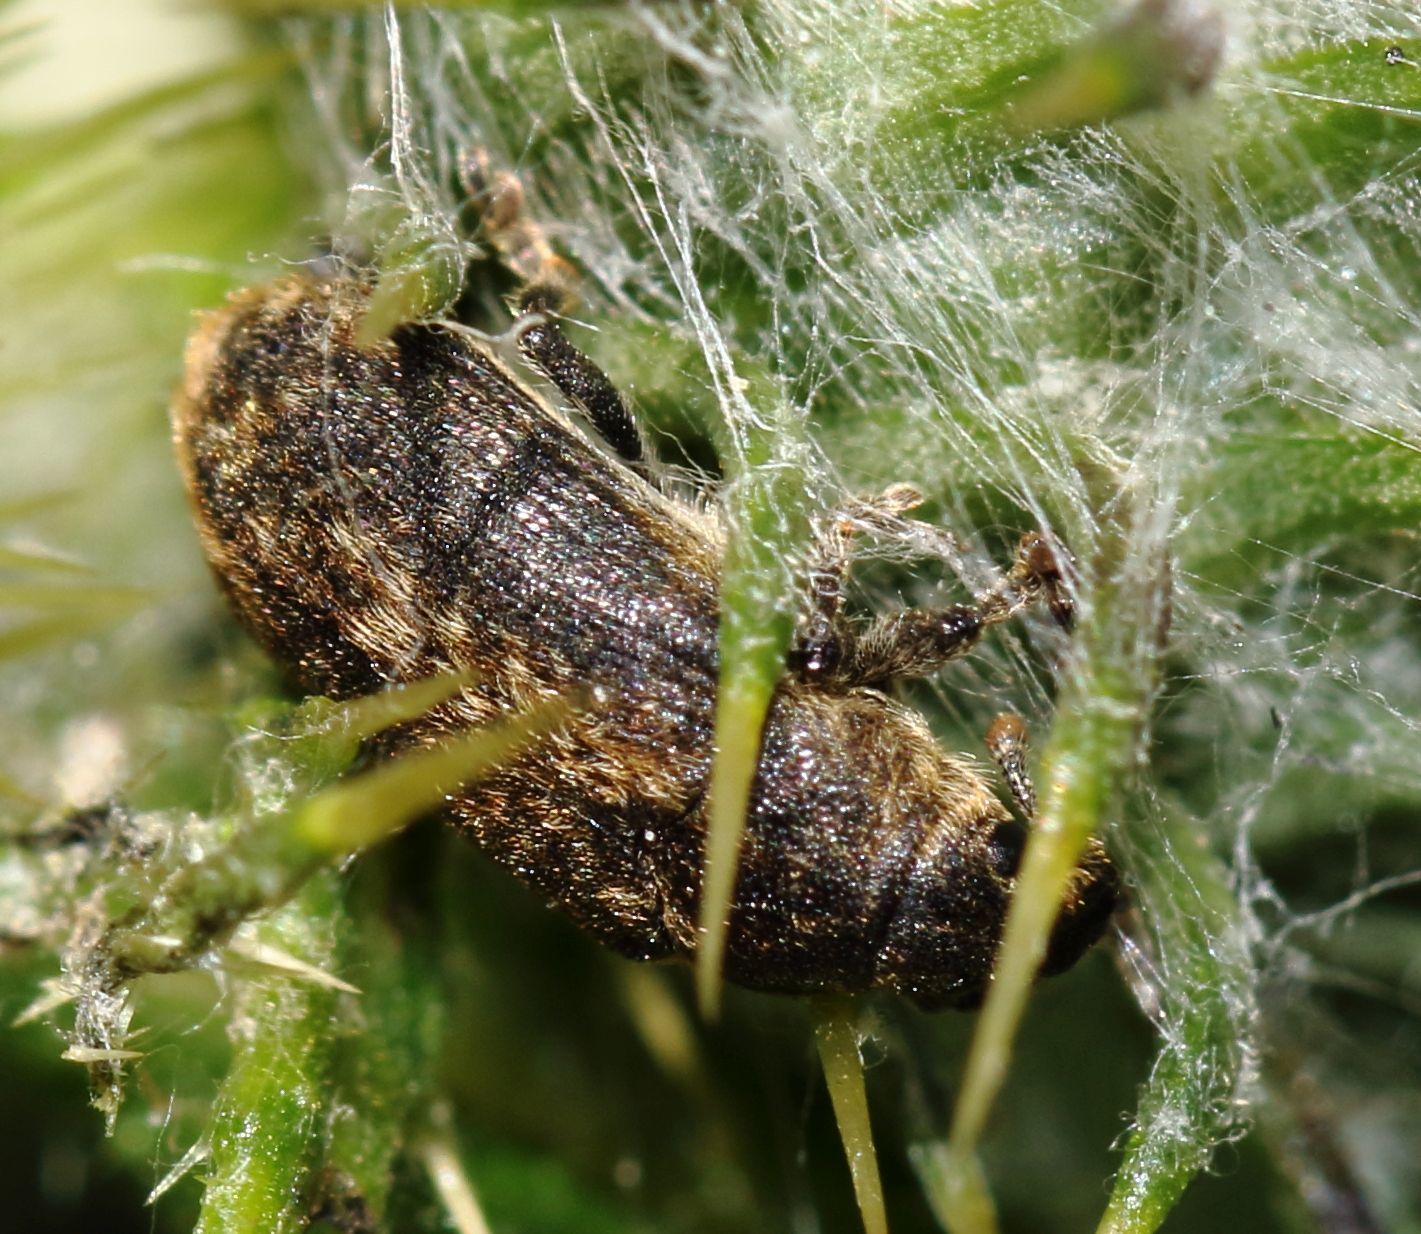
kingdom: Animalia
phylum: Arthropoda
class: Insecta
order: Coleoptera
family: Curculionidae
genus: Rhinocyllus
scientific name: Rhinocyllus conicus
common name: Weevil
